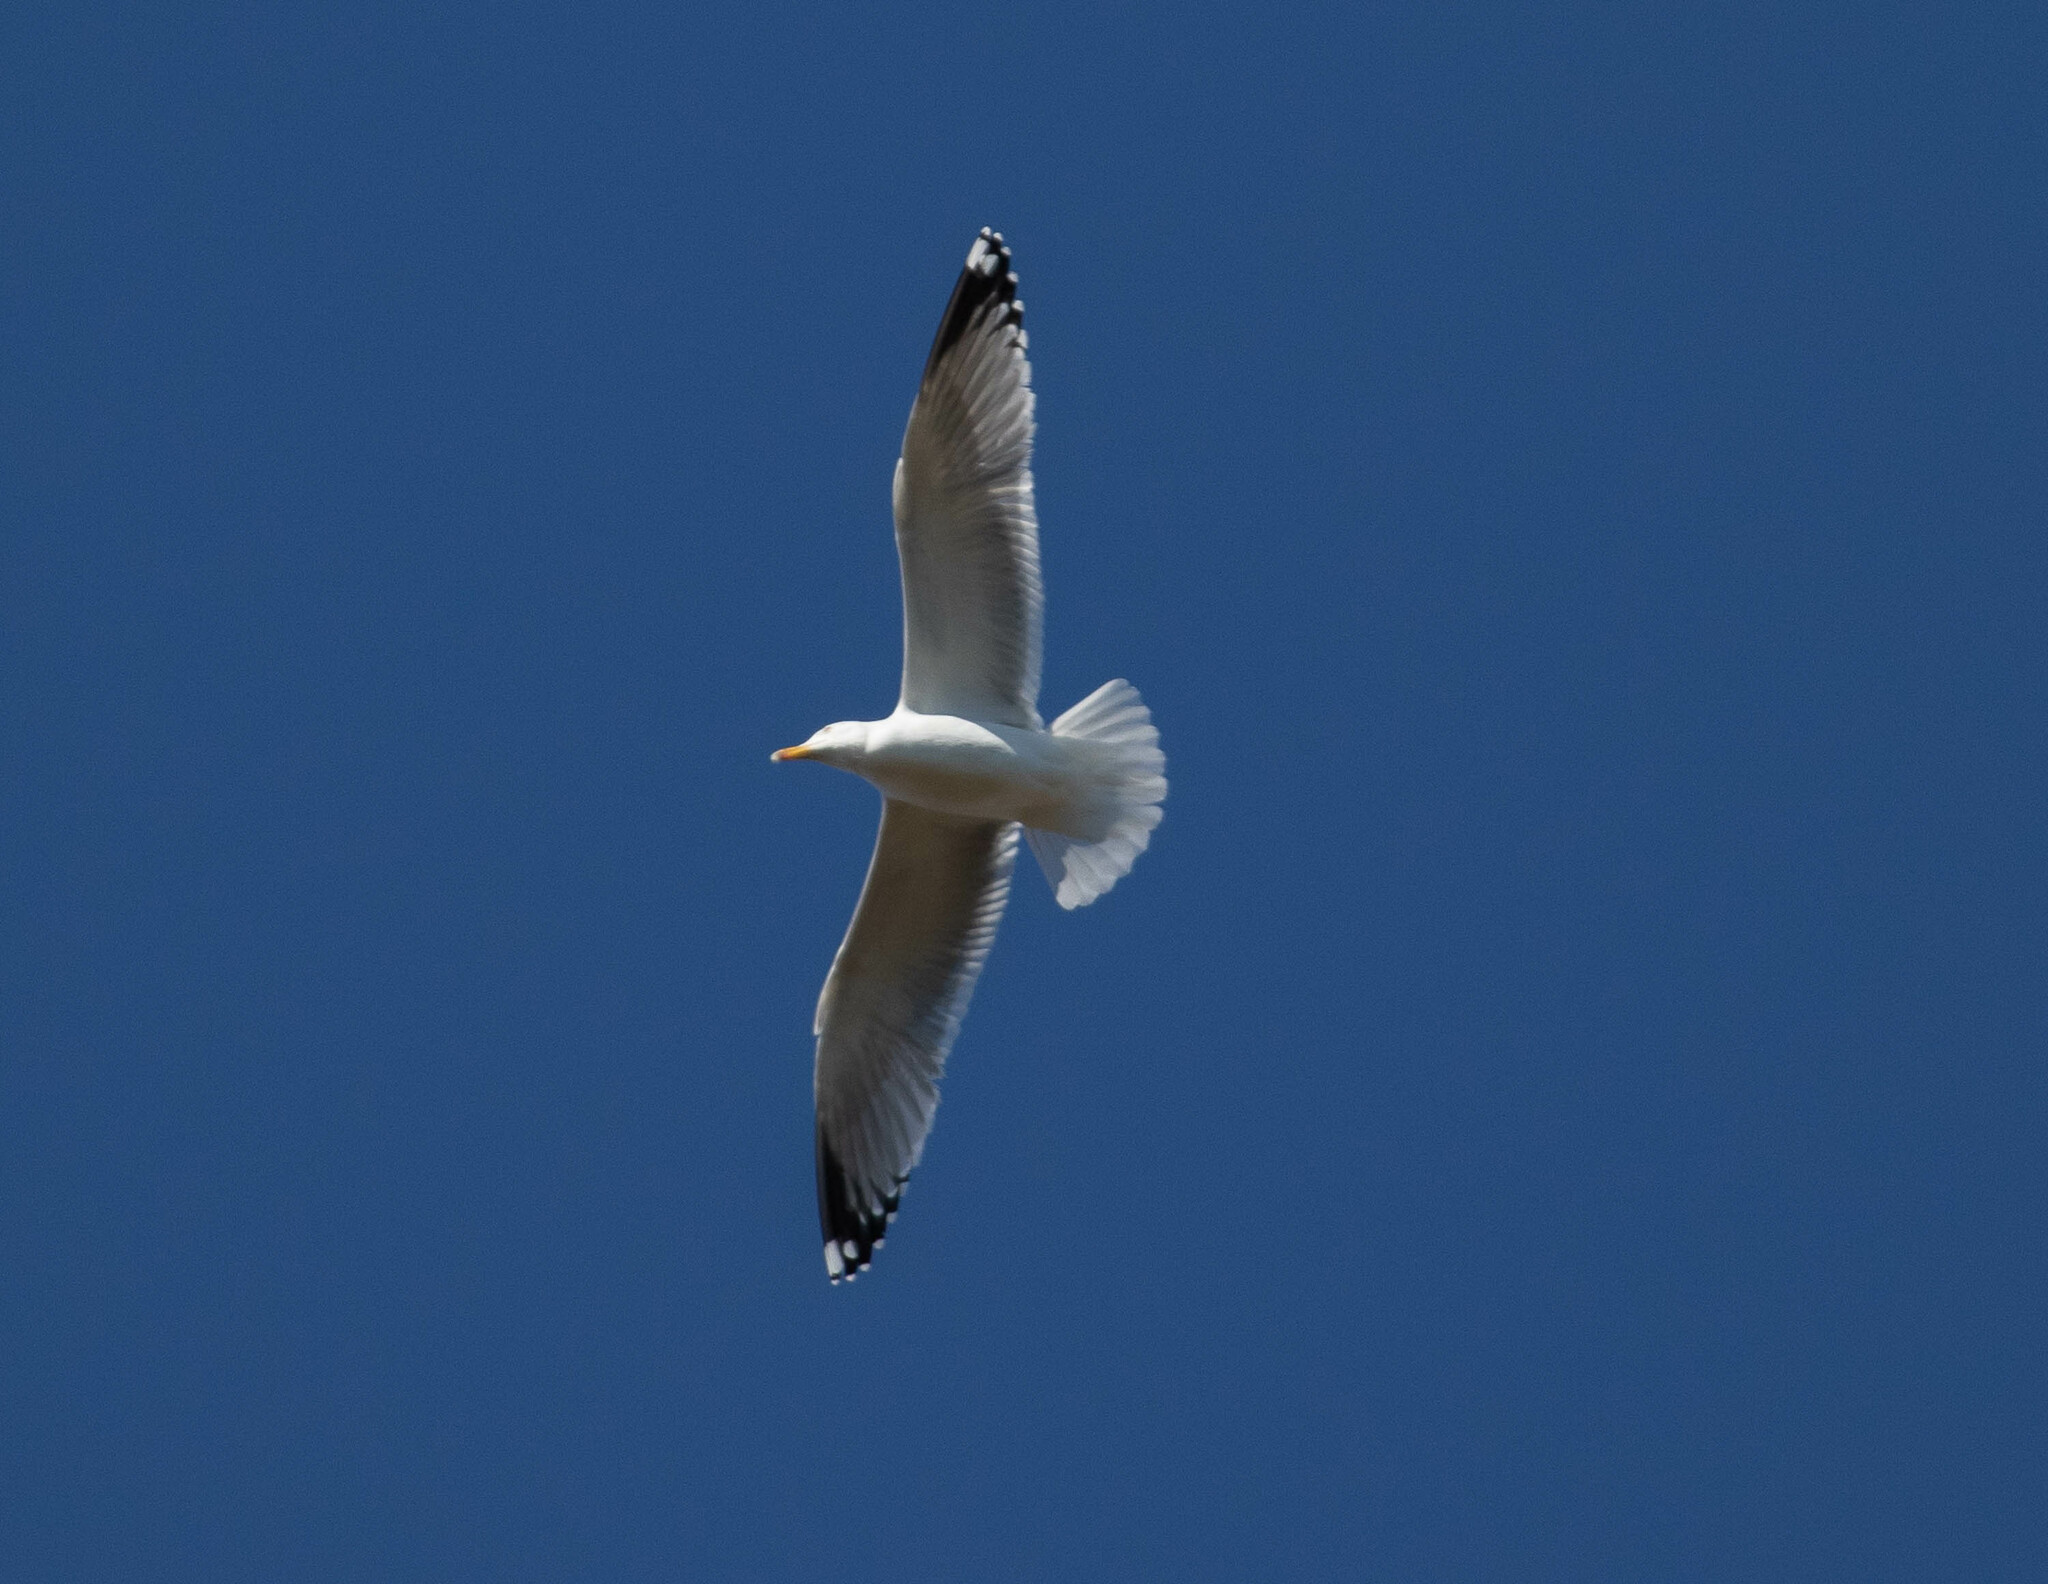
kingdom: Animalia
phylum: Chordata
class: Aves
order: Charadriiformes
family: Laridae
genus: Larus
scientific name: Larus argentatus
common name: Herring gull
